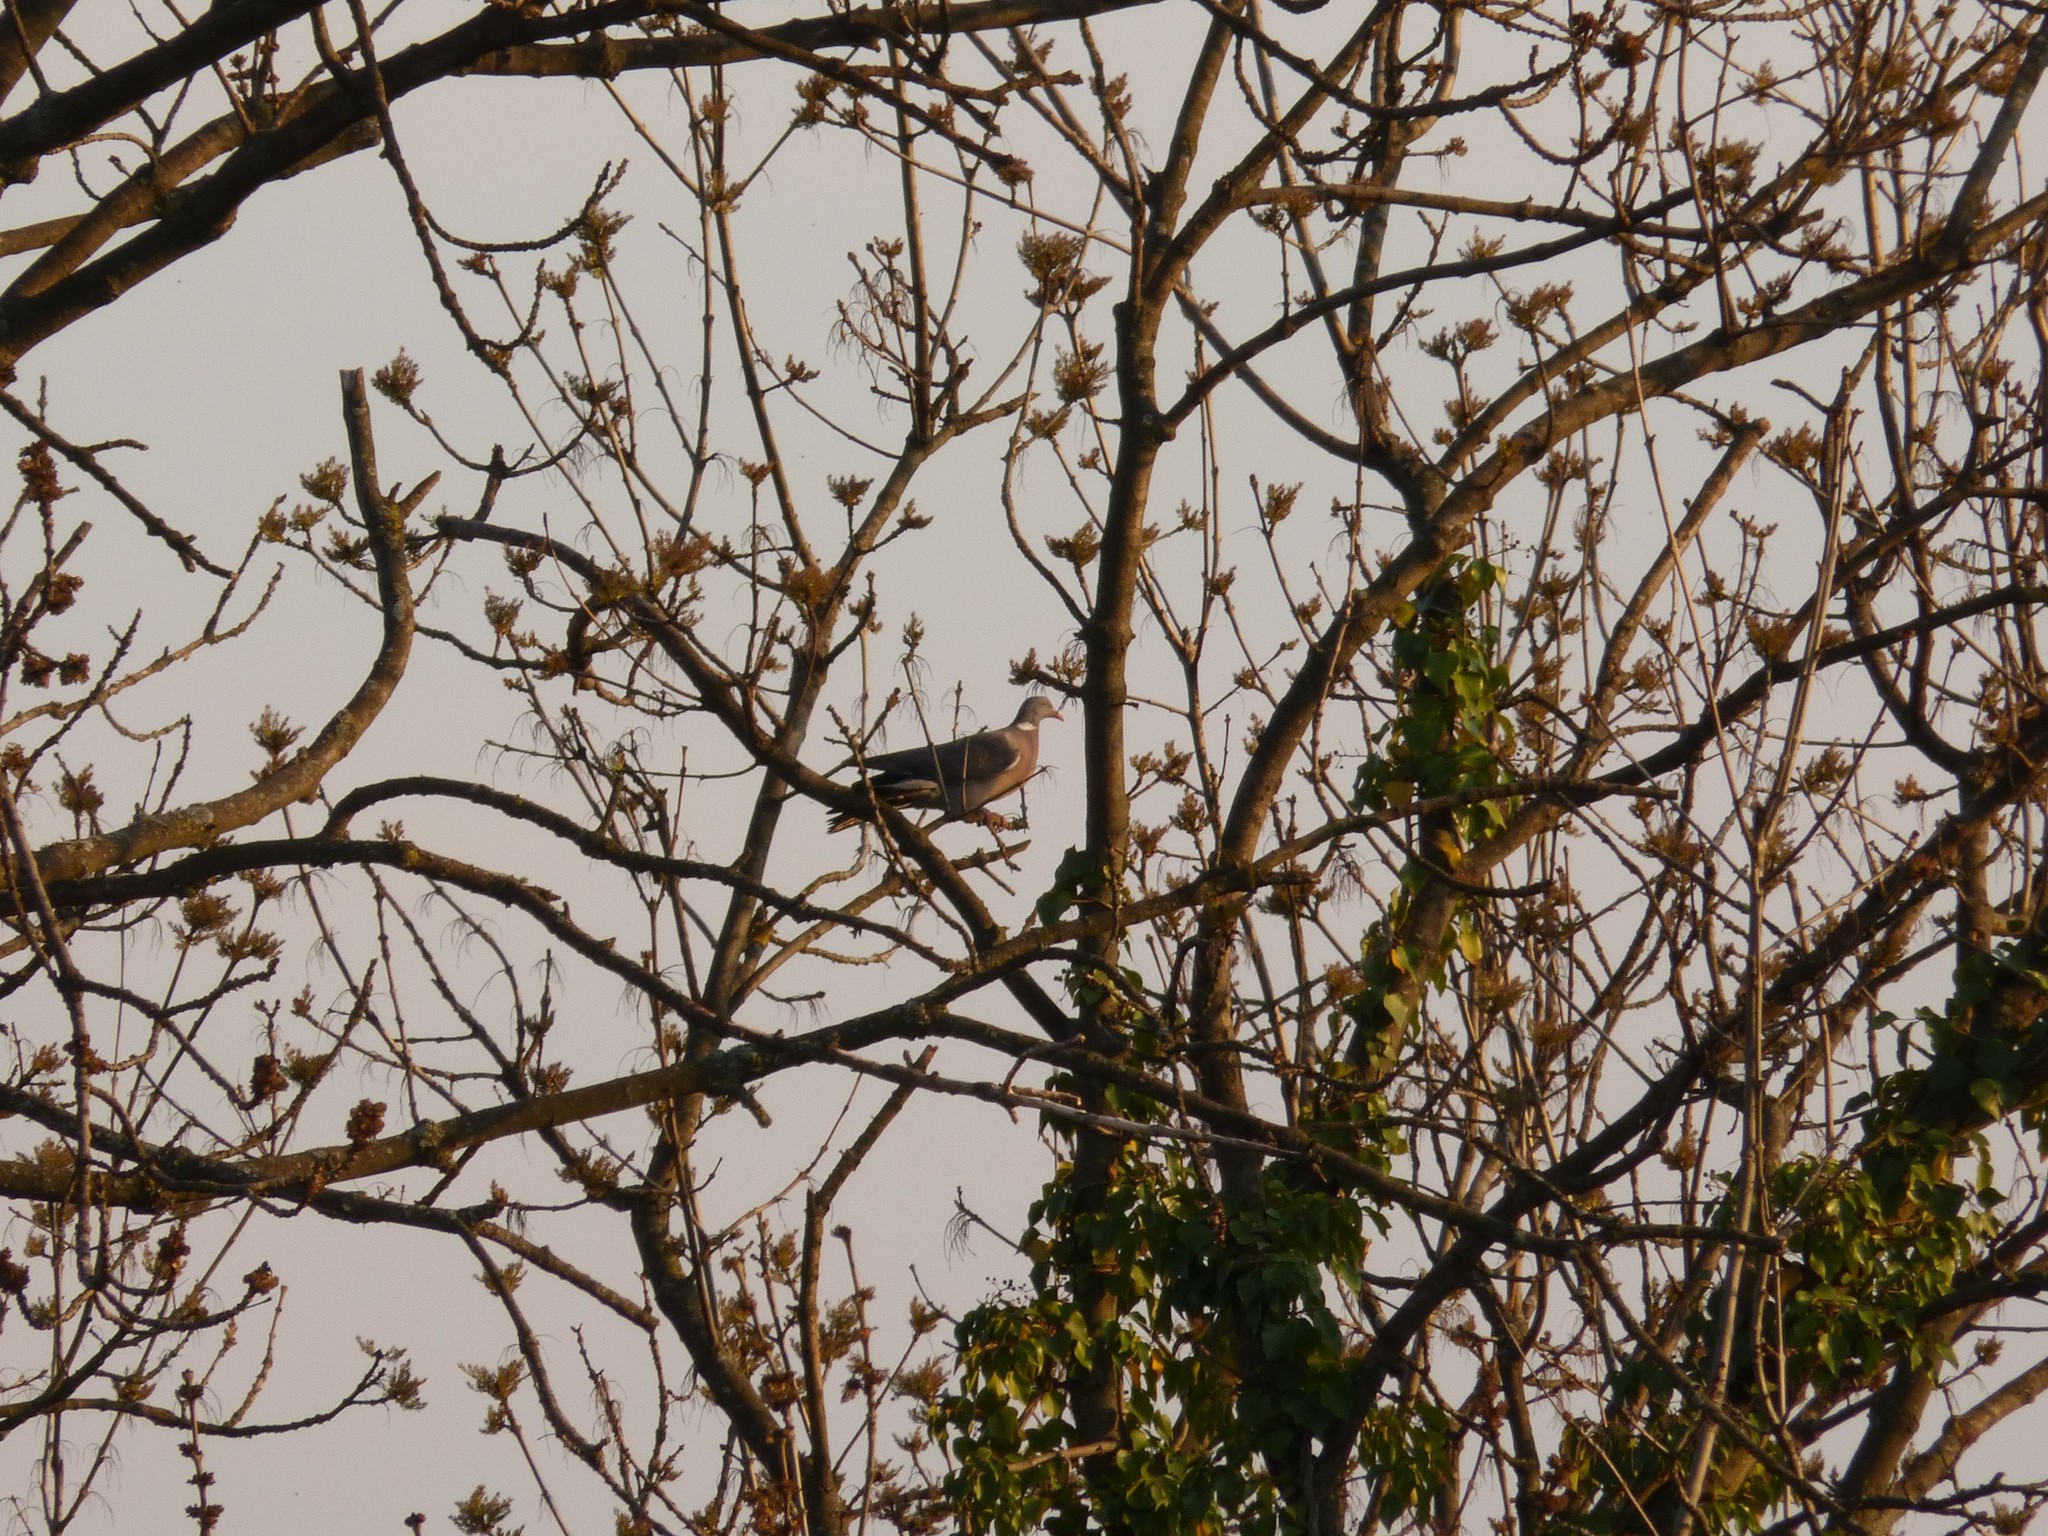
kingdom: Animalia
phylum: Chordata
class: Aves
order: Columbiformes
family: Columbidae
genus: Columba
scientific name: Columba palumbus
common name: Common wood pigeon
